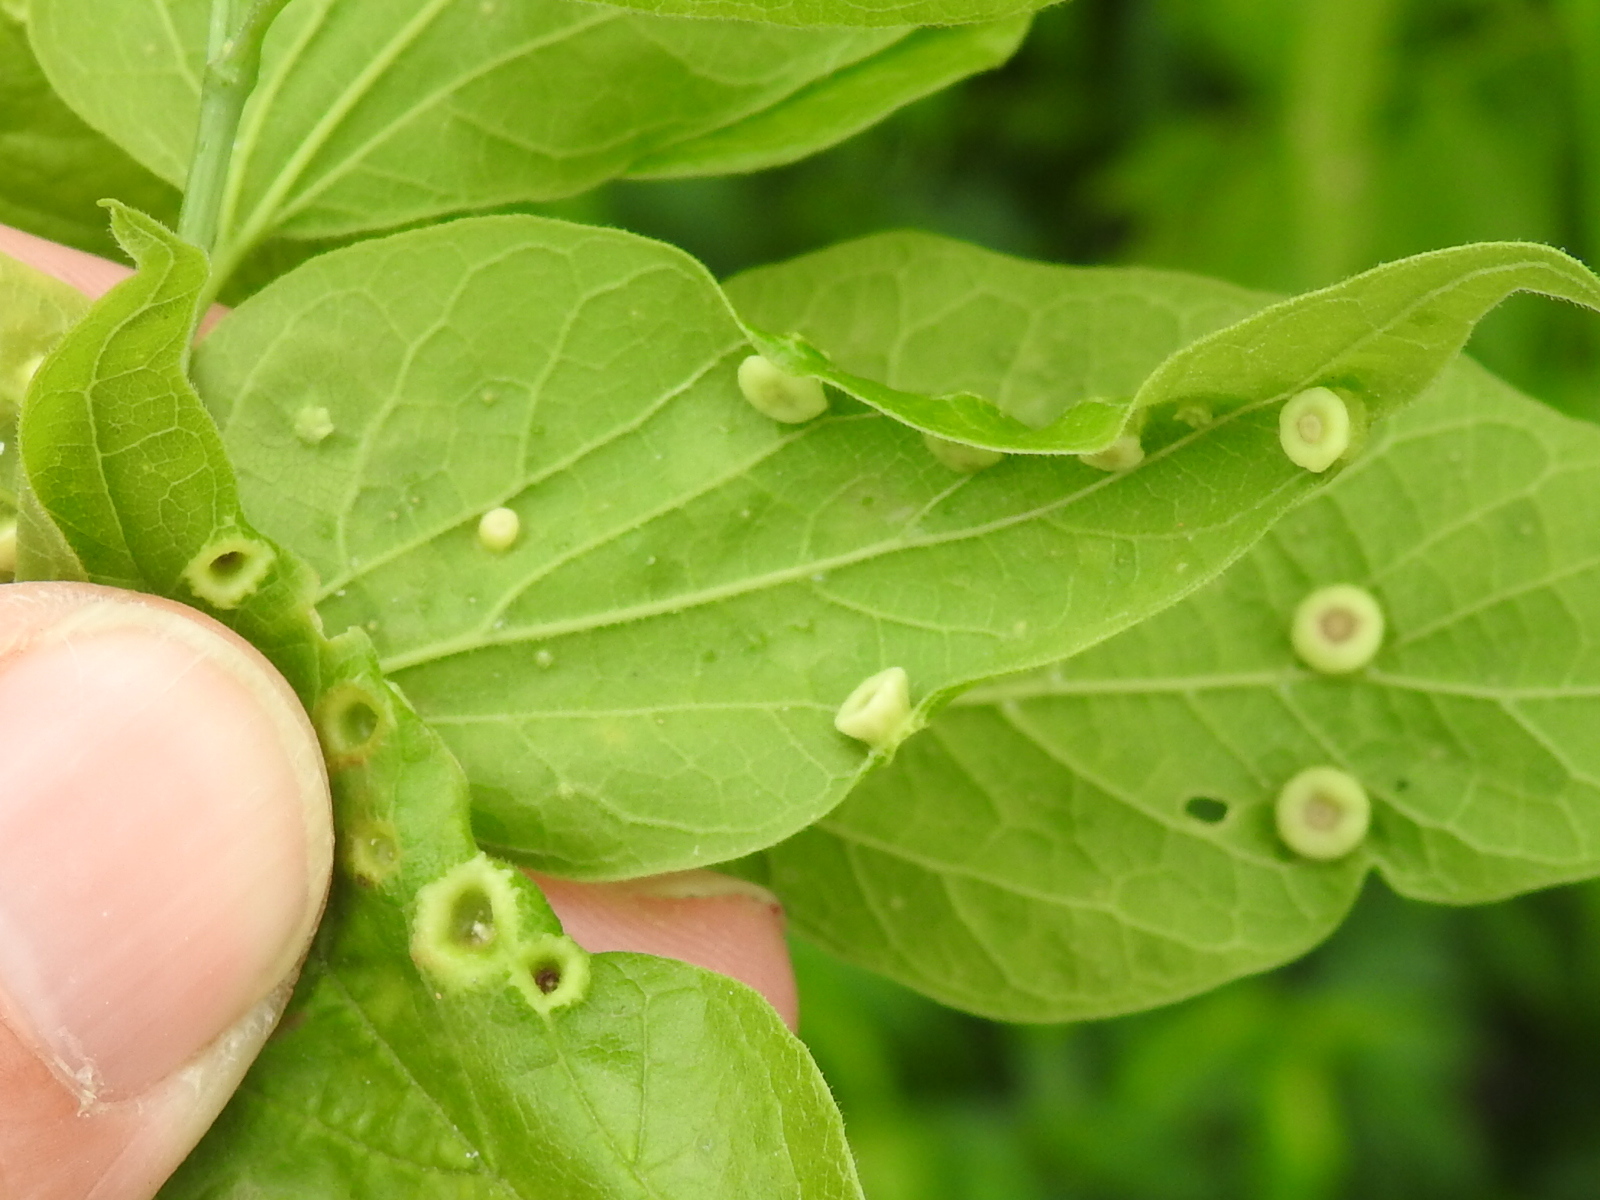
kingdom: Animalia
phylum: Arthropoda
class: Insecta
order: Hemiptera
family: Aphalaridae
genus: Pachypsylla
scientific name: Pachypsylla celtidismamma
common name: Hackberry nipplegall psyllid
